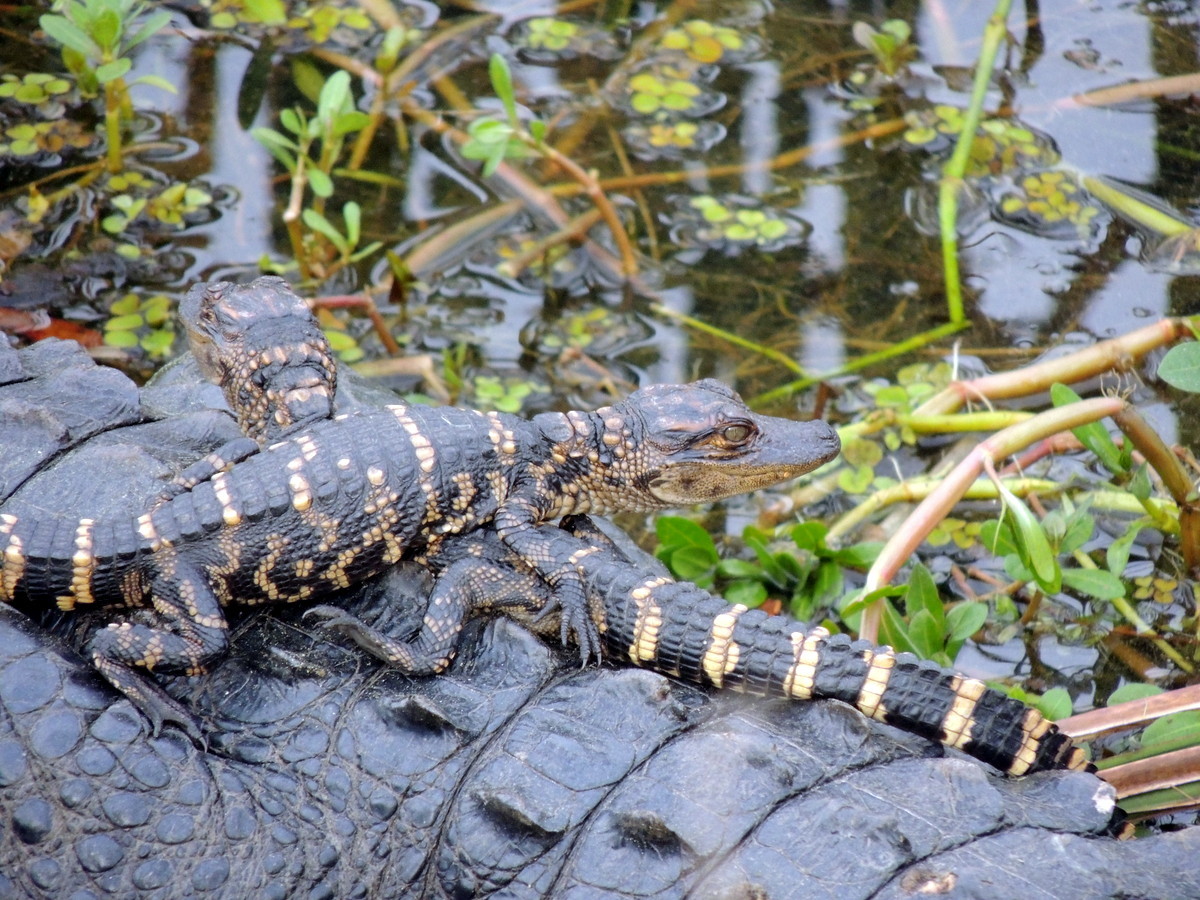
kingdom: Plantae
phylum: Tracheophyta
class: Magnoliopsida
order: Caryophyllales
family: Amaranthaceae
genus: Alternanthera
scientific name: Alternanthera philoxeroides
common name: Alligatorweed
